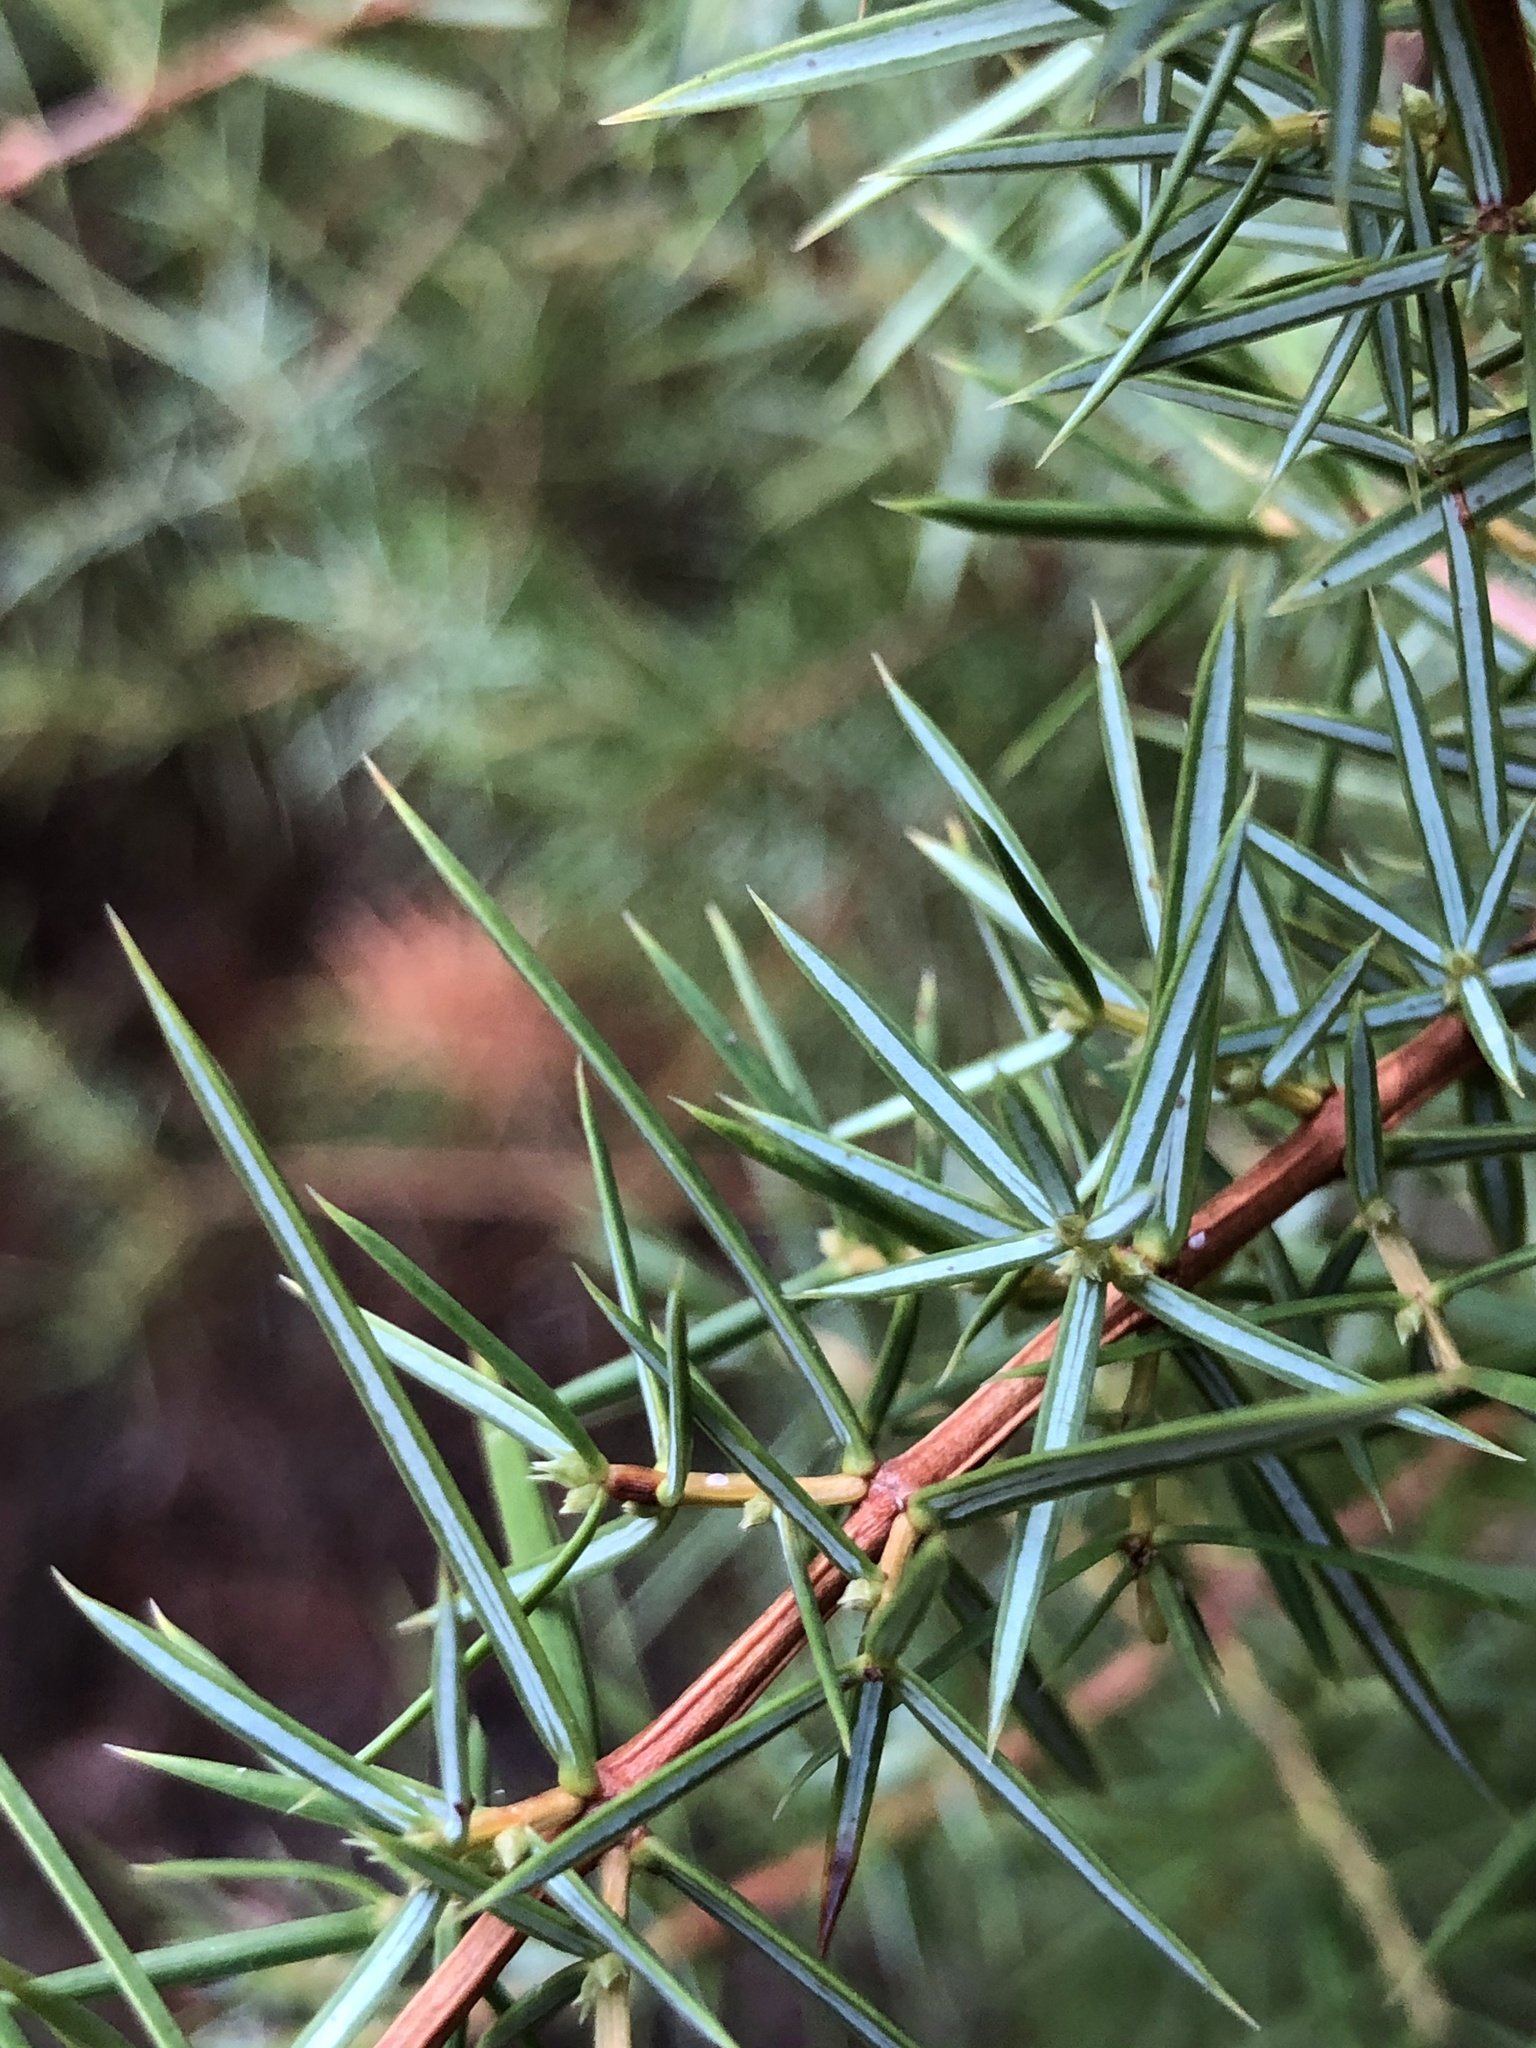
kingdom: Plantae
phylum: Tracheophyta
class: Pinopsida
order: Pinales
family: Cupressaceae
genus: Juniperus
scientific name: Juniperus communis
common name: Common juniper
